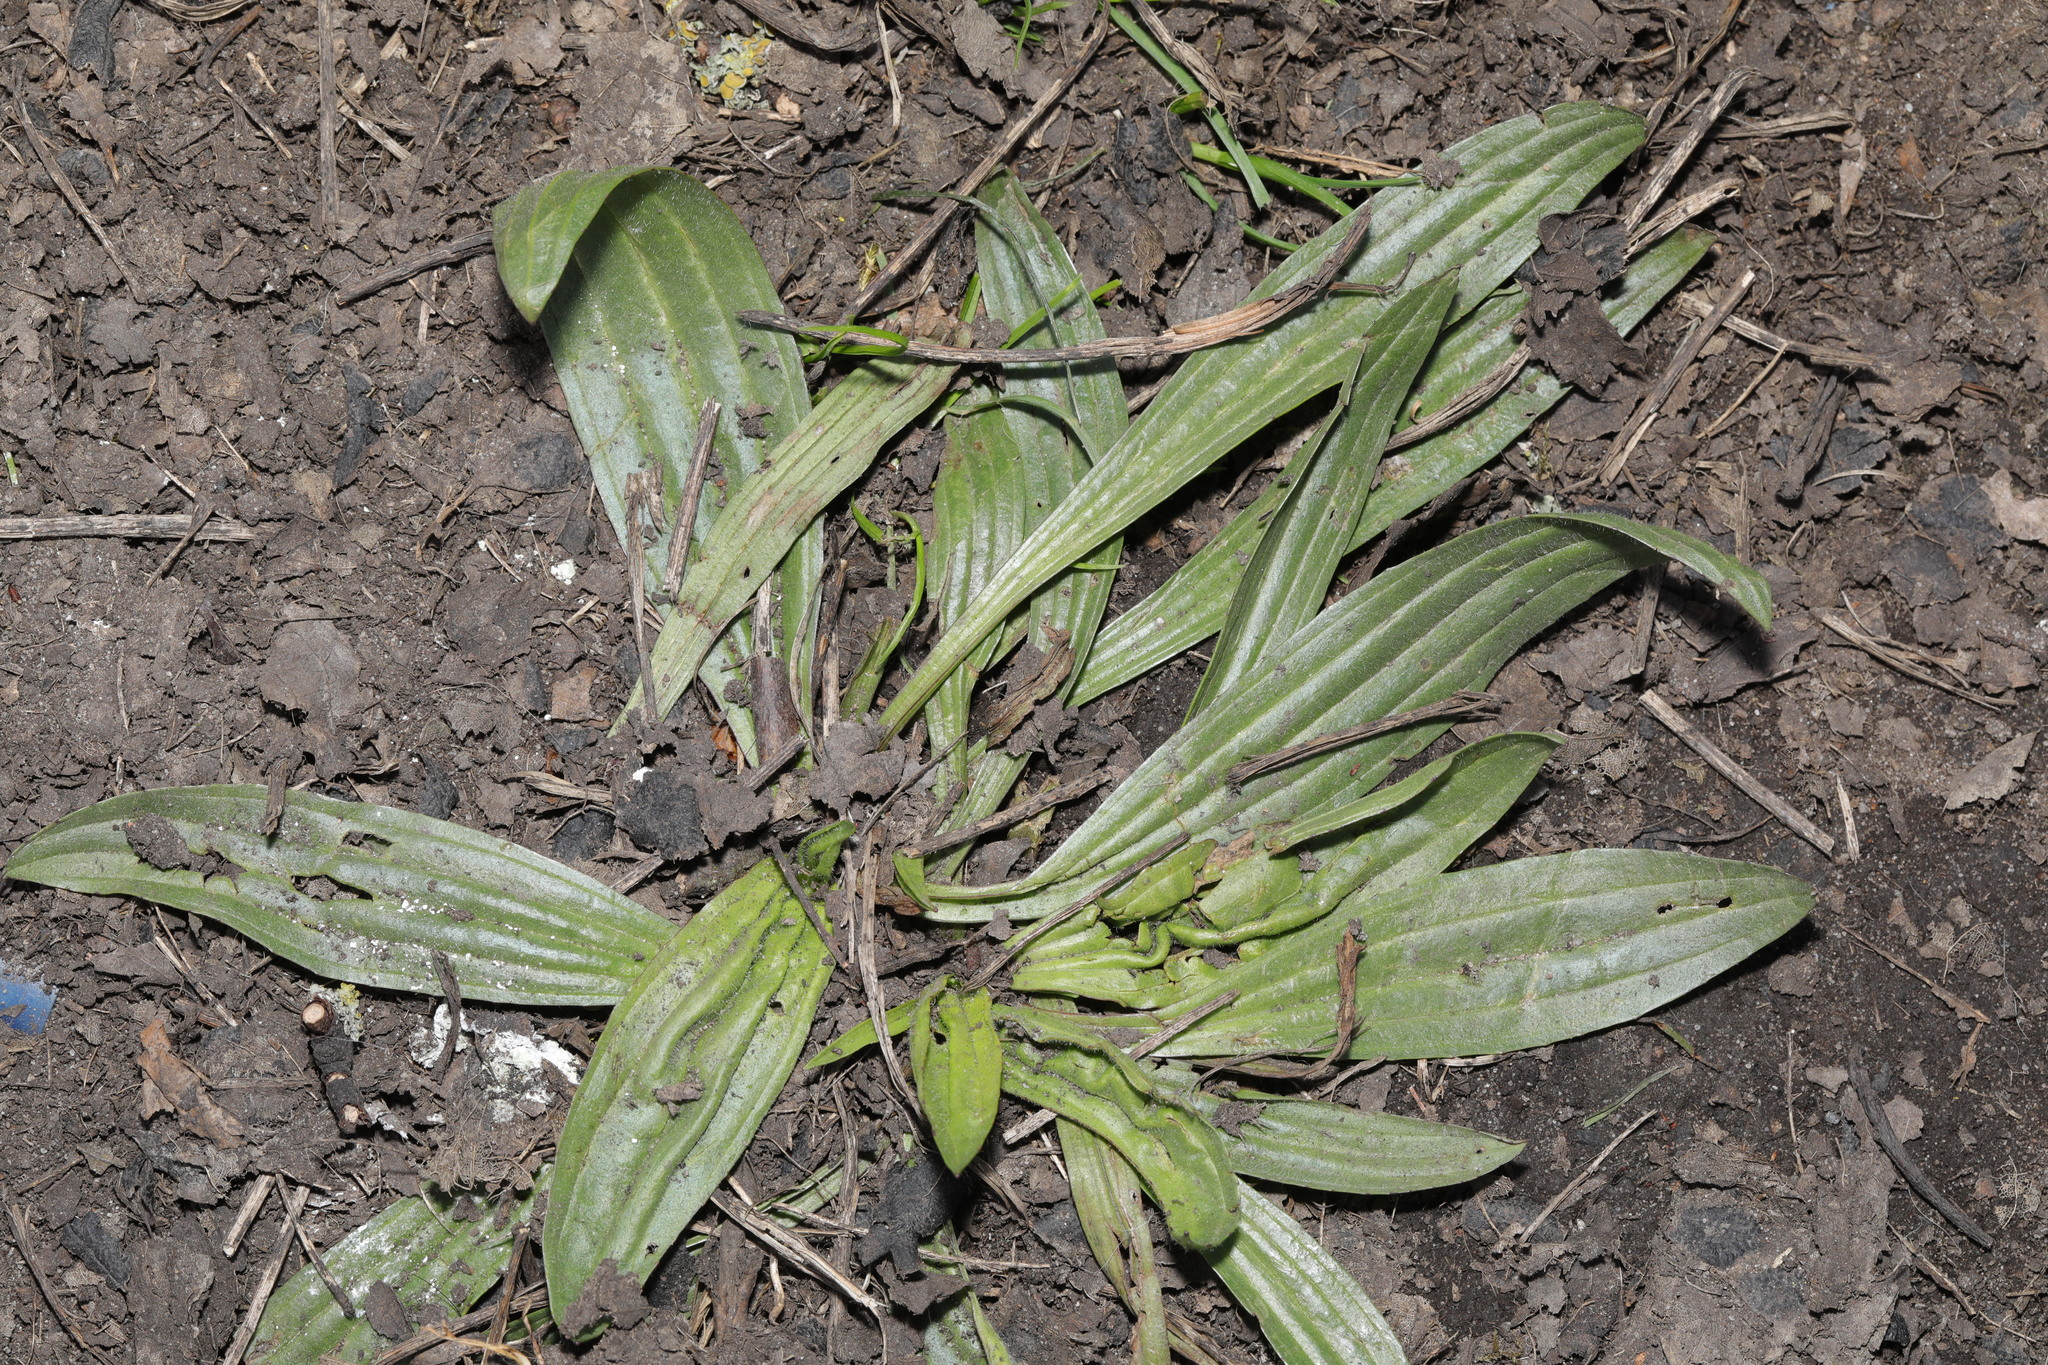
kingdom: Plantae
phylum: Tracheophyta
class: Magnoliopsida
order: Lamiales
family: Plantaginaceae
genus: Plantago
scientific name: Plantago lanceolata
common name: Ribwort plantain
